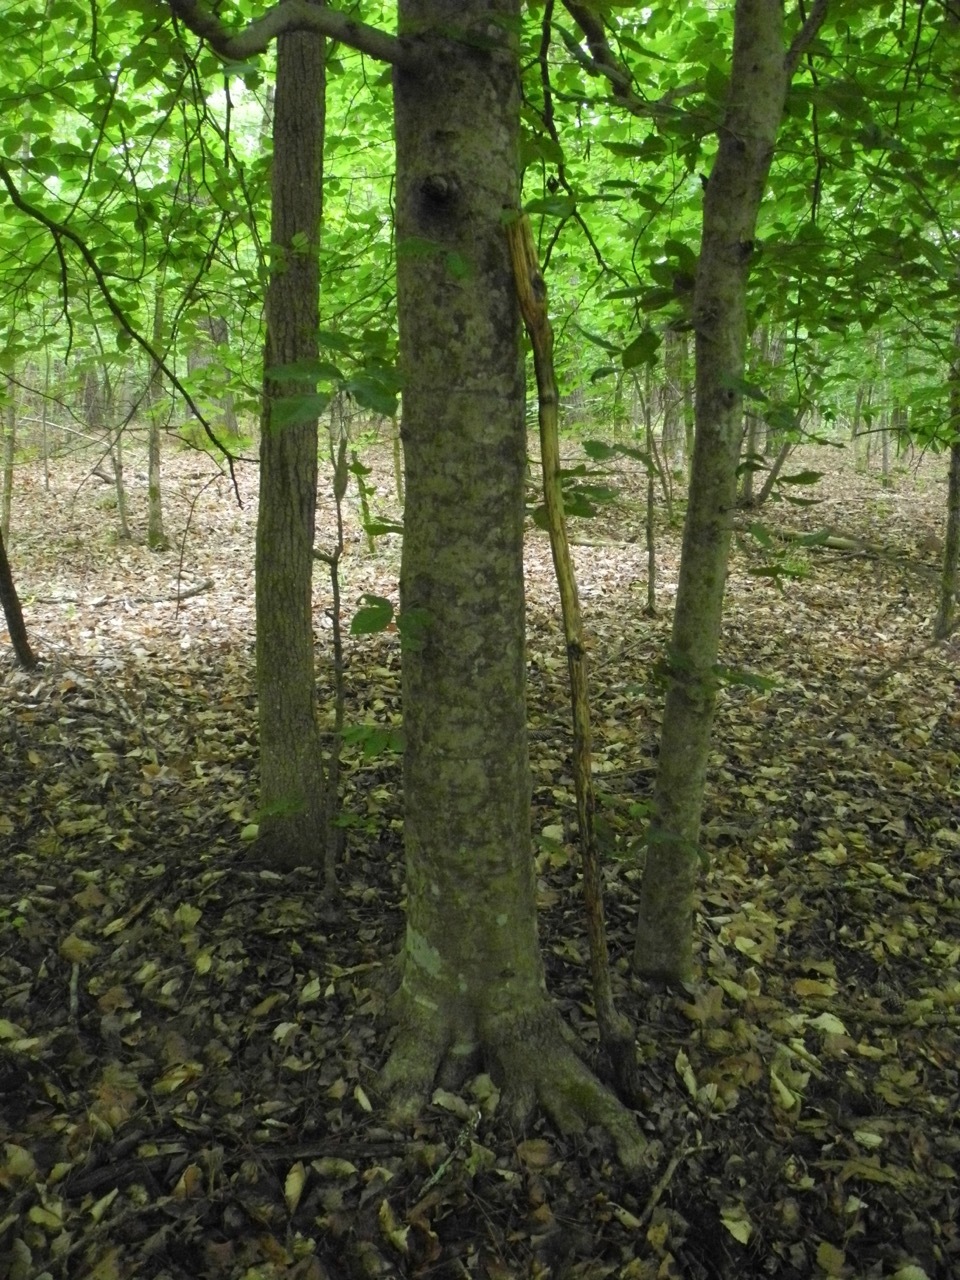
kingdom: Plantae
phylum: Tracheophyta
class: Magnoliopsida
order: Fagales
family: Fagaceae
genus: Fagus
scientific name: Fagus grandifolia
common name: American beech
